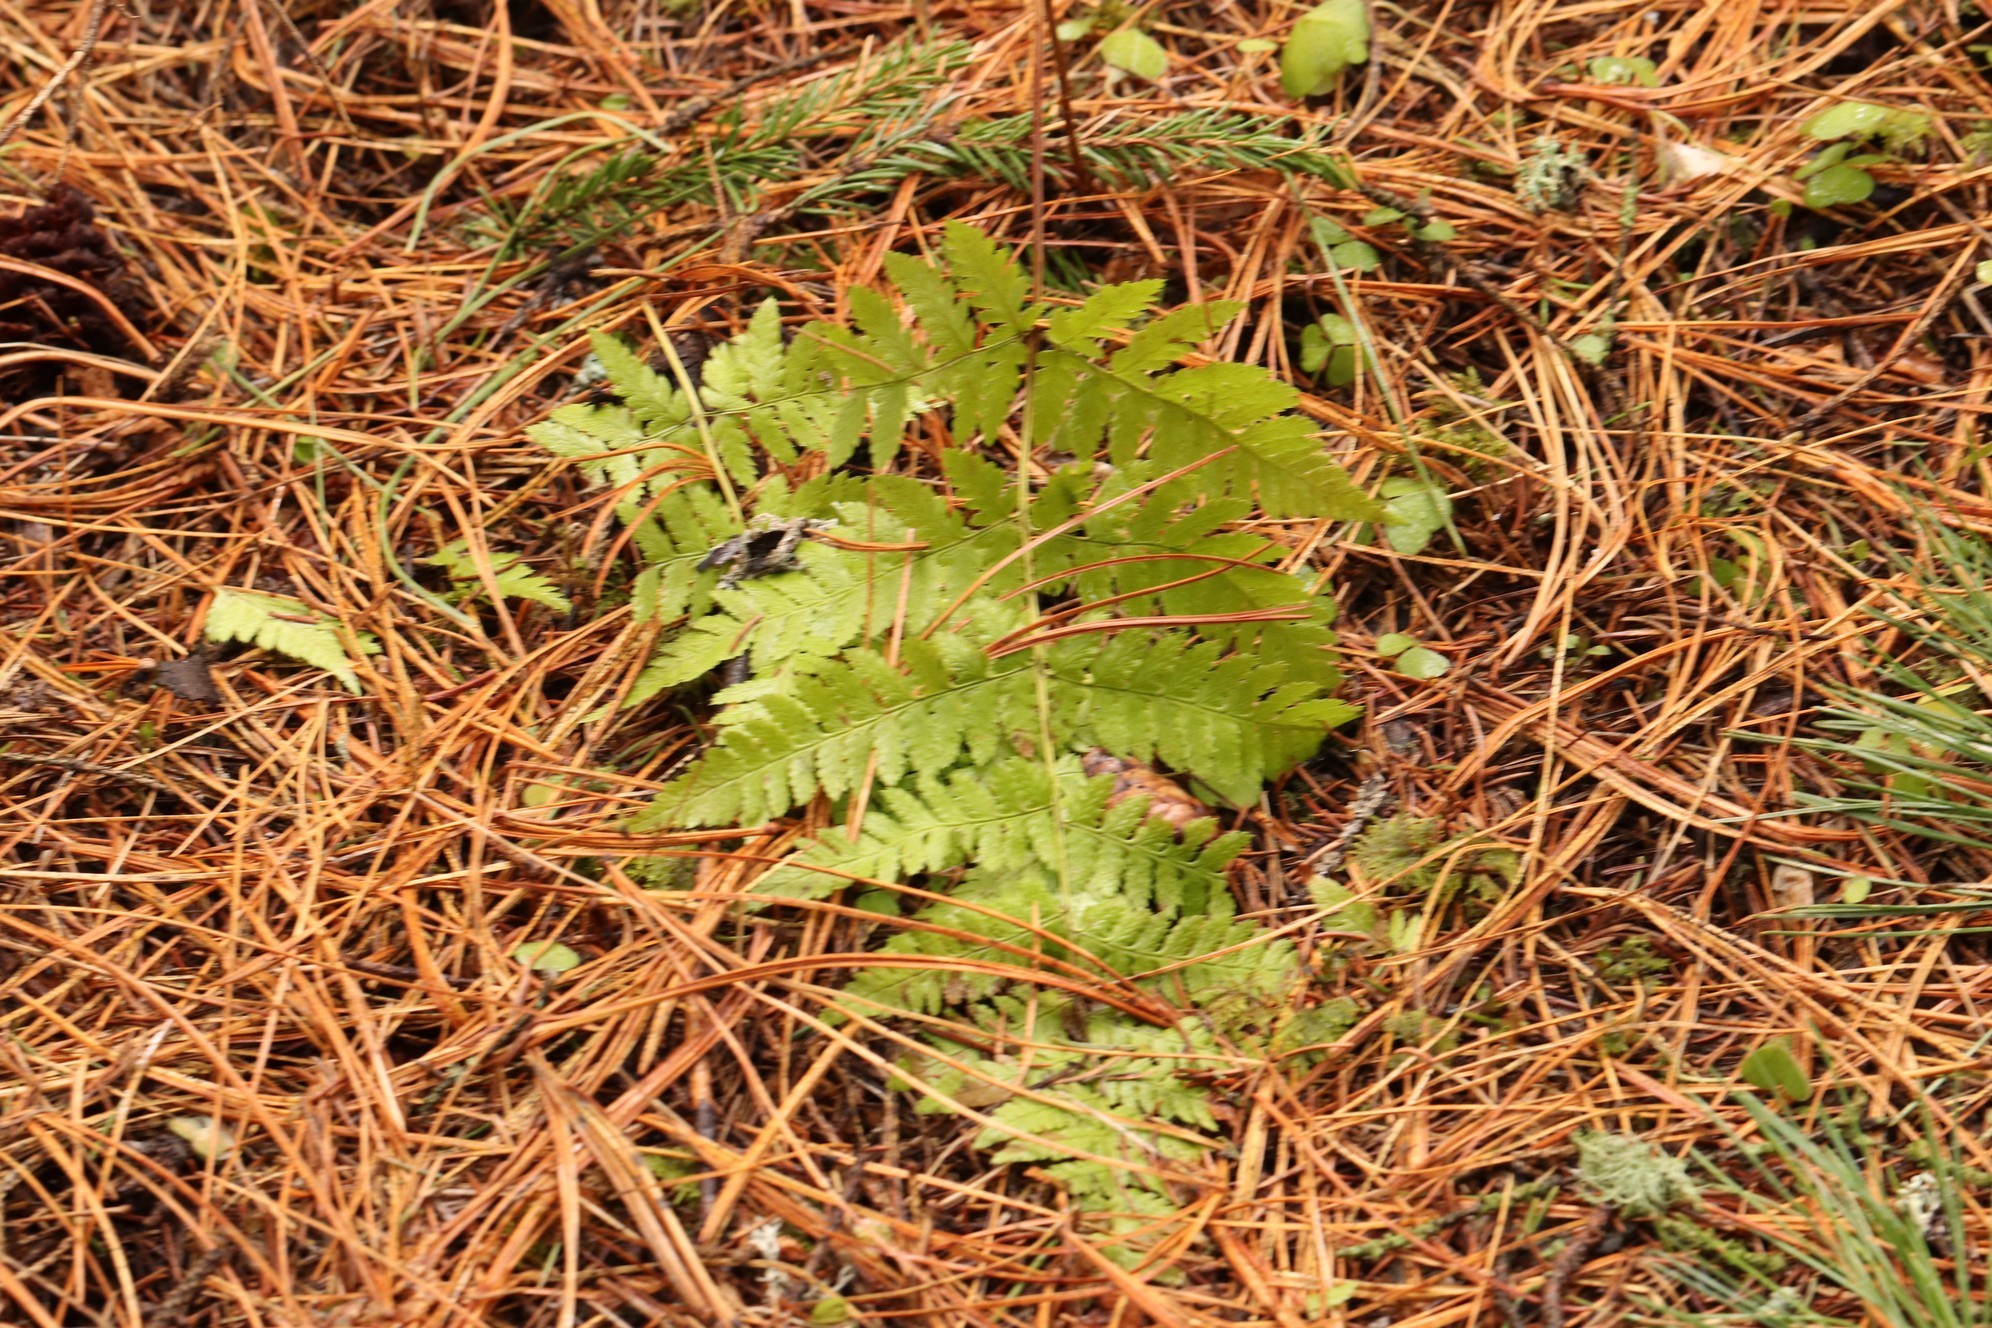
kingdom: Plantae
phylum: Tracheophyta
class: Polypodiopsida
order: Polypodiales
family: Dryopteridaceae
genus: Dryopteris
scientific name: Dryopteris carthusiana
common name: Narrow buckler-fern
